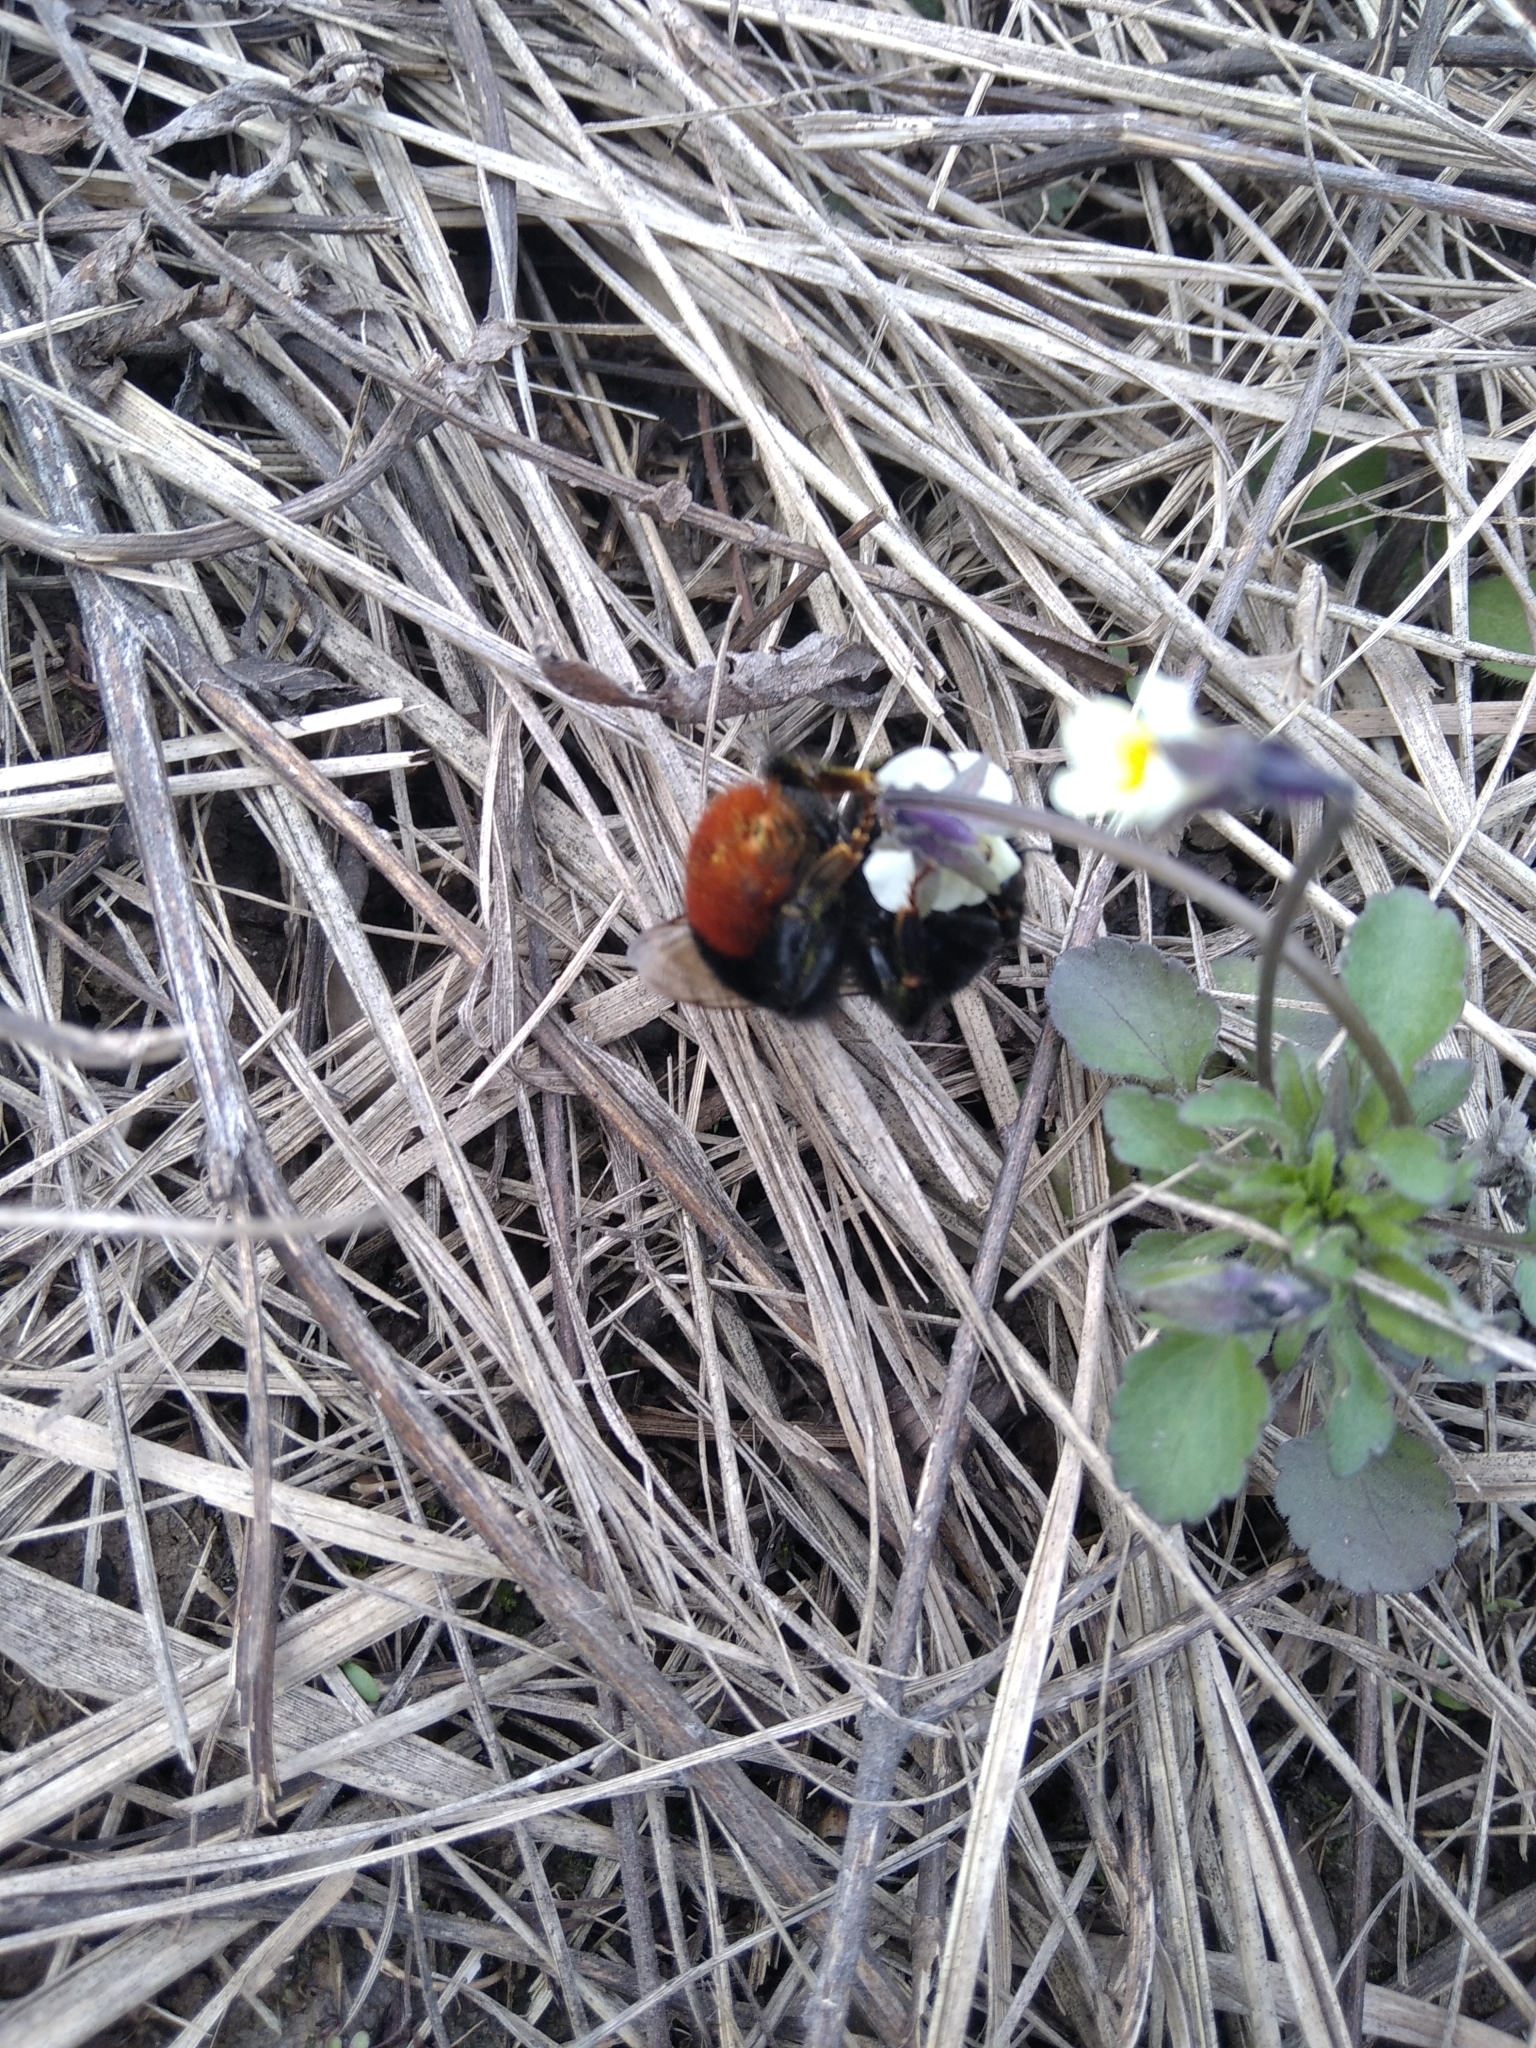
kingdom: Animalia
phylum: Arthropoda
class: Insecta
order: Hymenoptera
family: Apidae
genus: Bombus
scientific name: Bombus lapidarius
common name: Large red-tailed humble-bee
